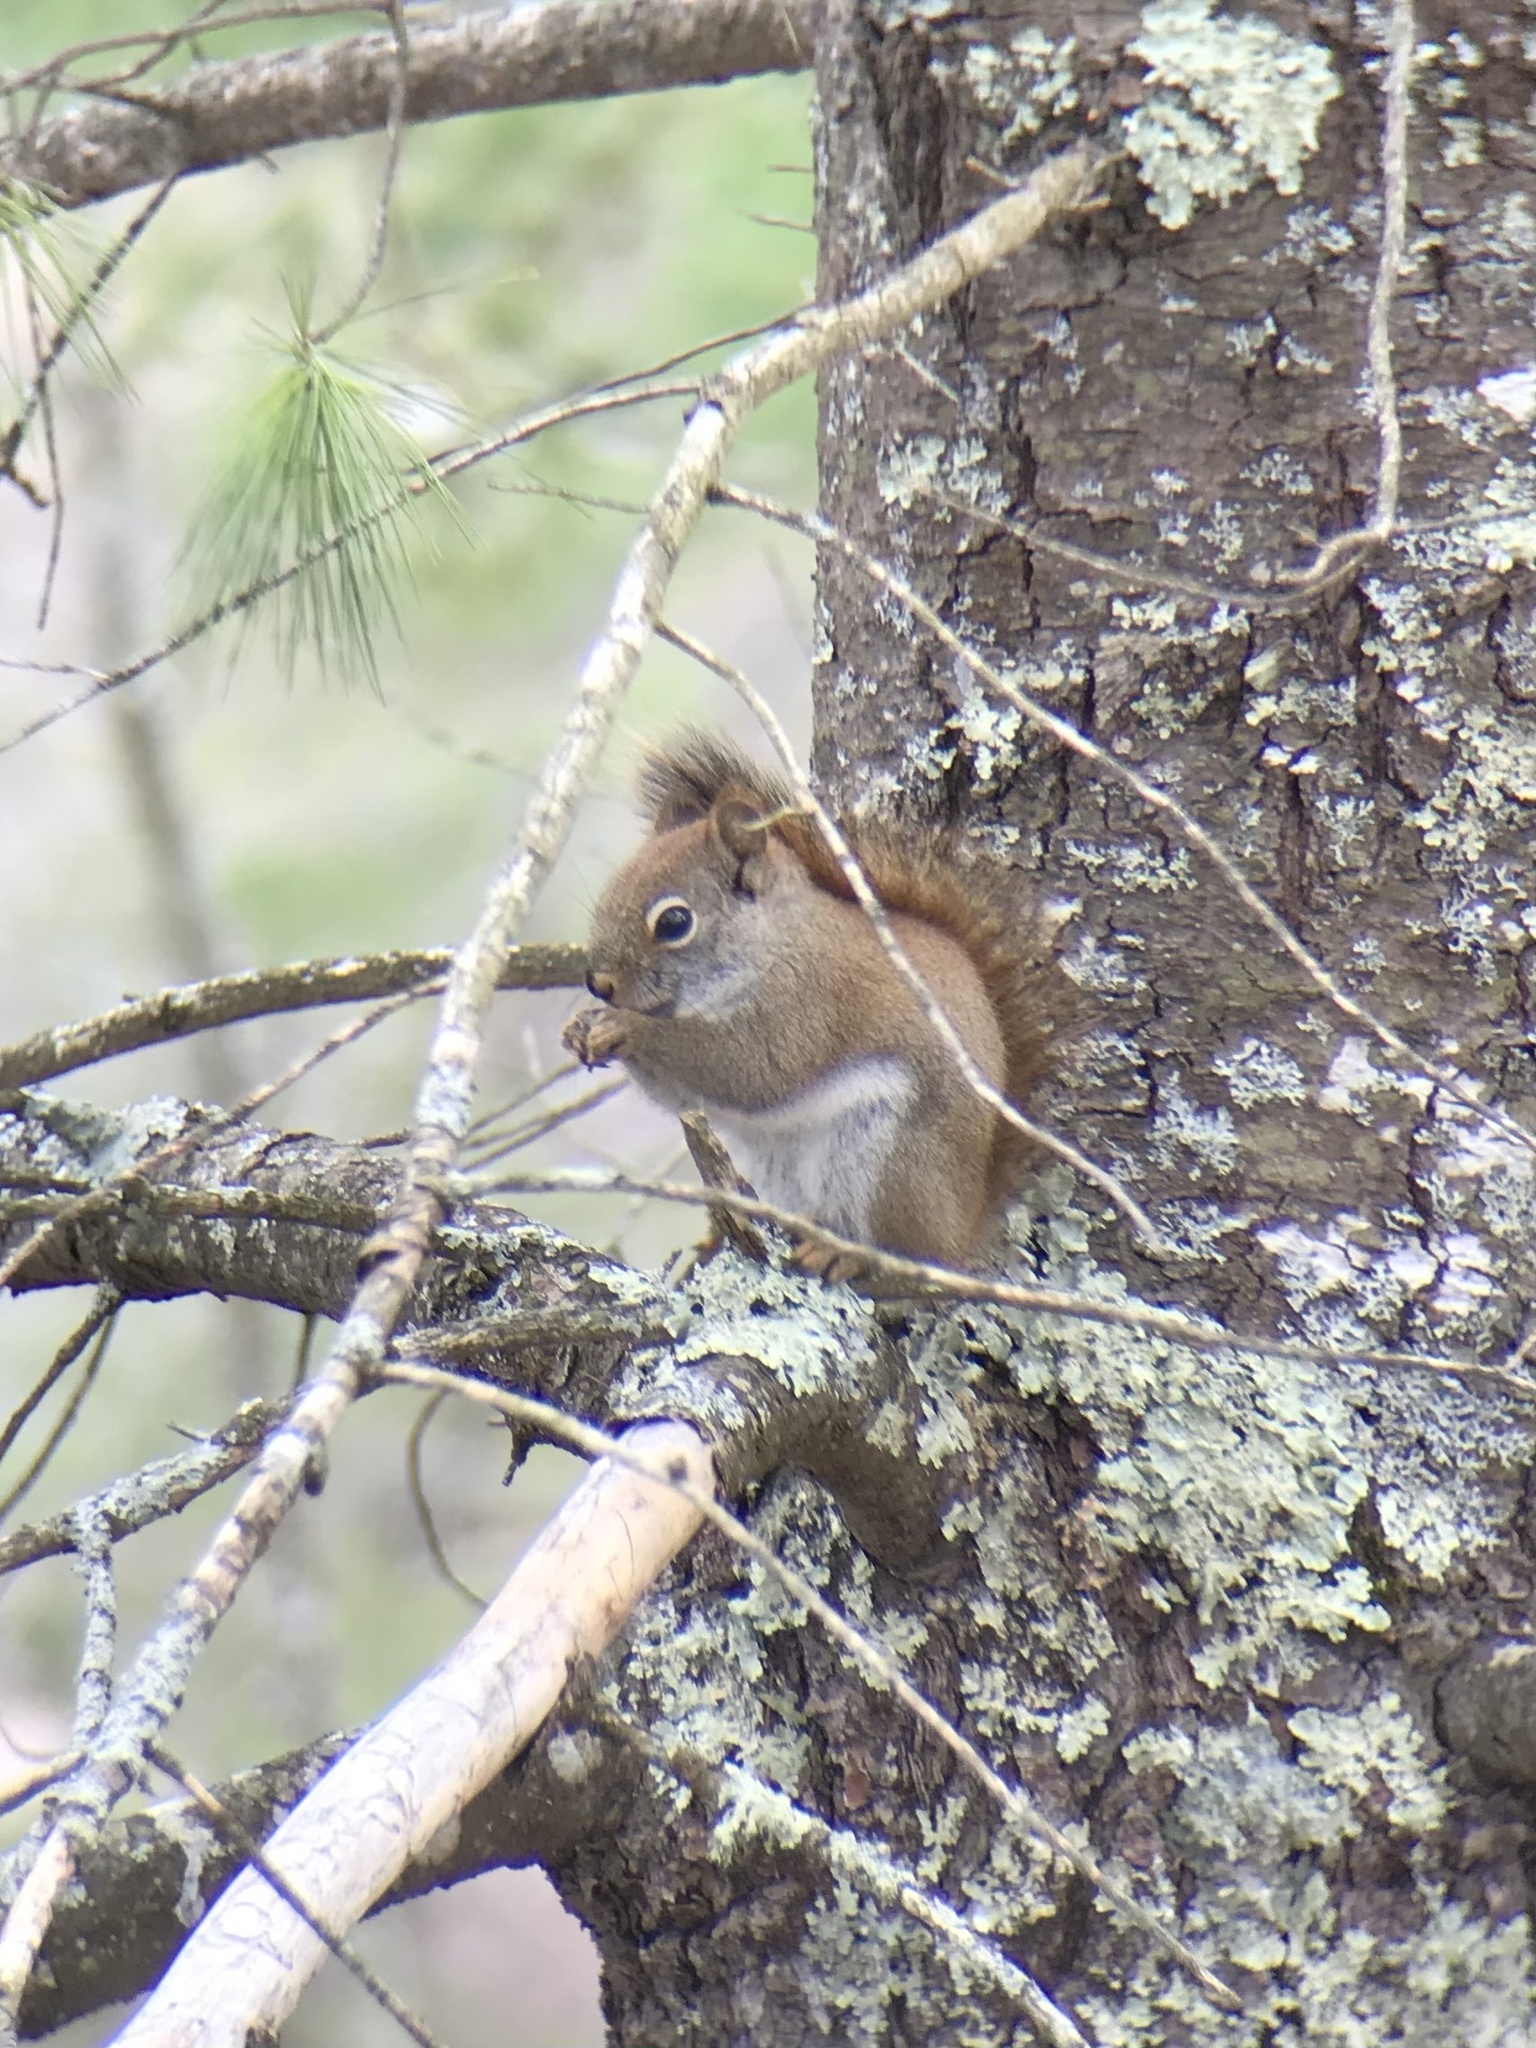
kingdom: Animalia
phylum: Chordata
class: Mammalia
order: Rodentia
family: Sciuridae
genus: Tamiasciurus
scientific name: Tamiasciurus hudsonicus
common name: Red squirrel
